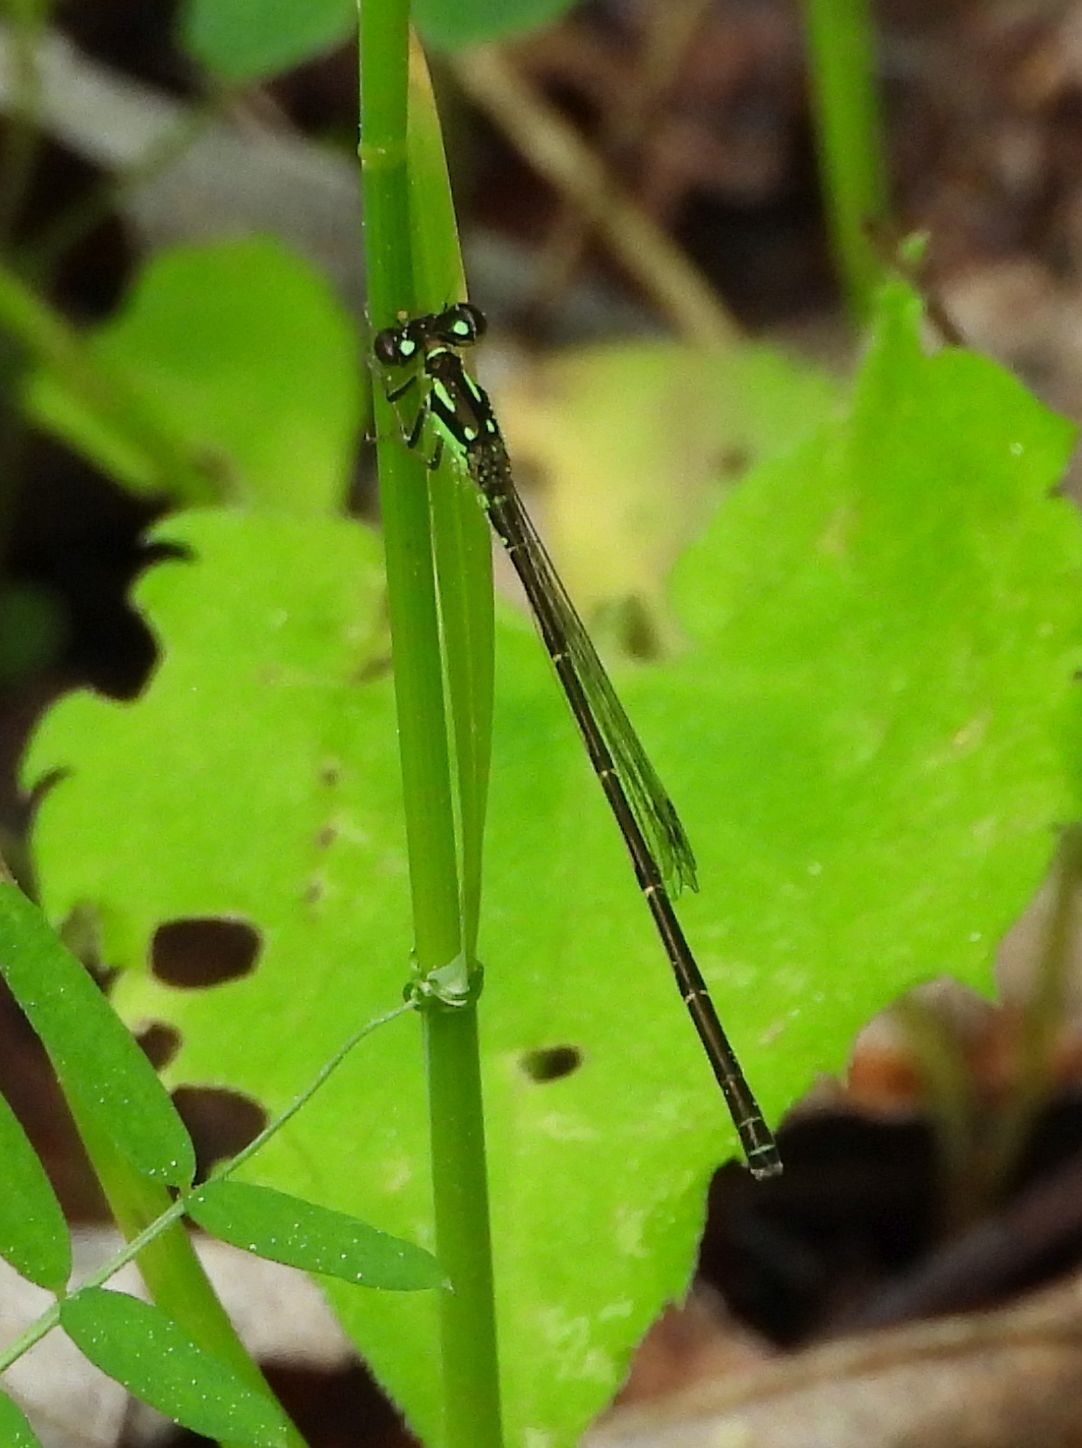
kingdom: Animalia
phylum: Arthropoda
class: Insecta
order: Odonata
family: Coenagrionidae
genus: Ischnura
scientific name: Ischnura posita
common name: Fragile forktail
